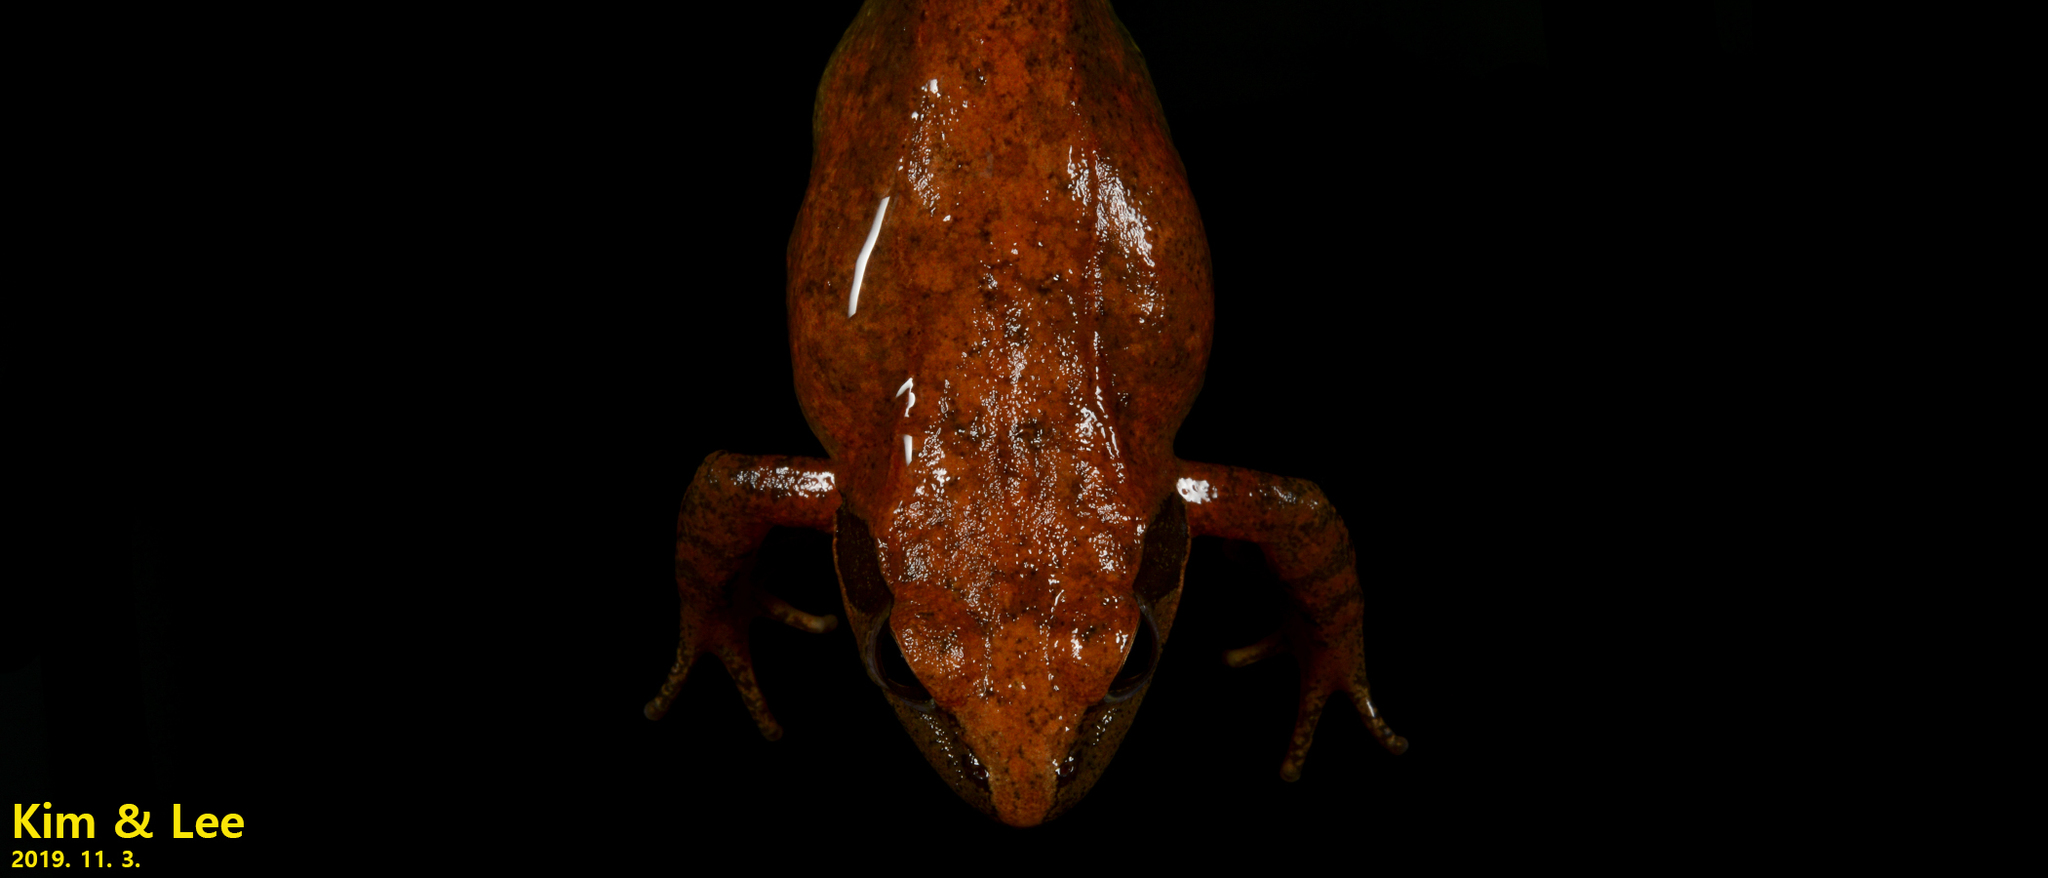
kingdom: Animalia
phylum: Chordata
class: Amphibia
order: Anura
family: Ranidae
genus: Rana
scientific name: Rana huanrenensis
